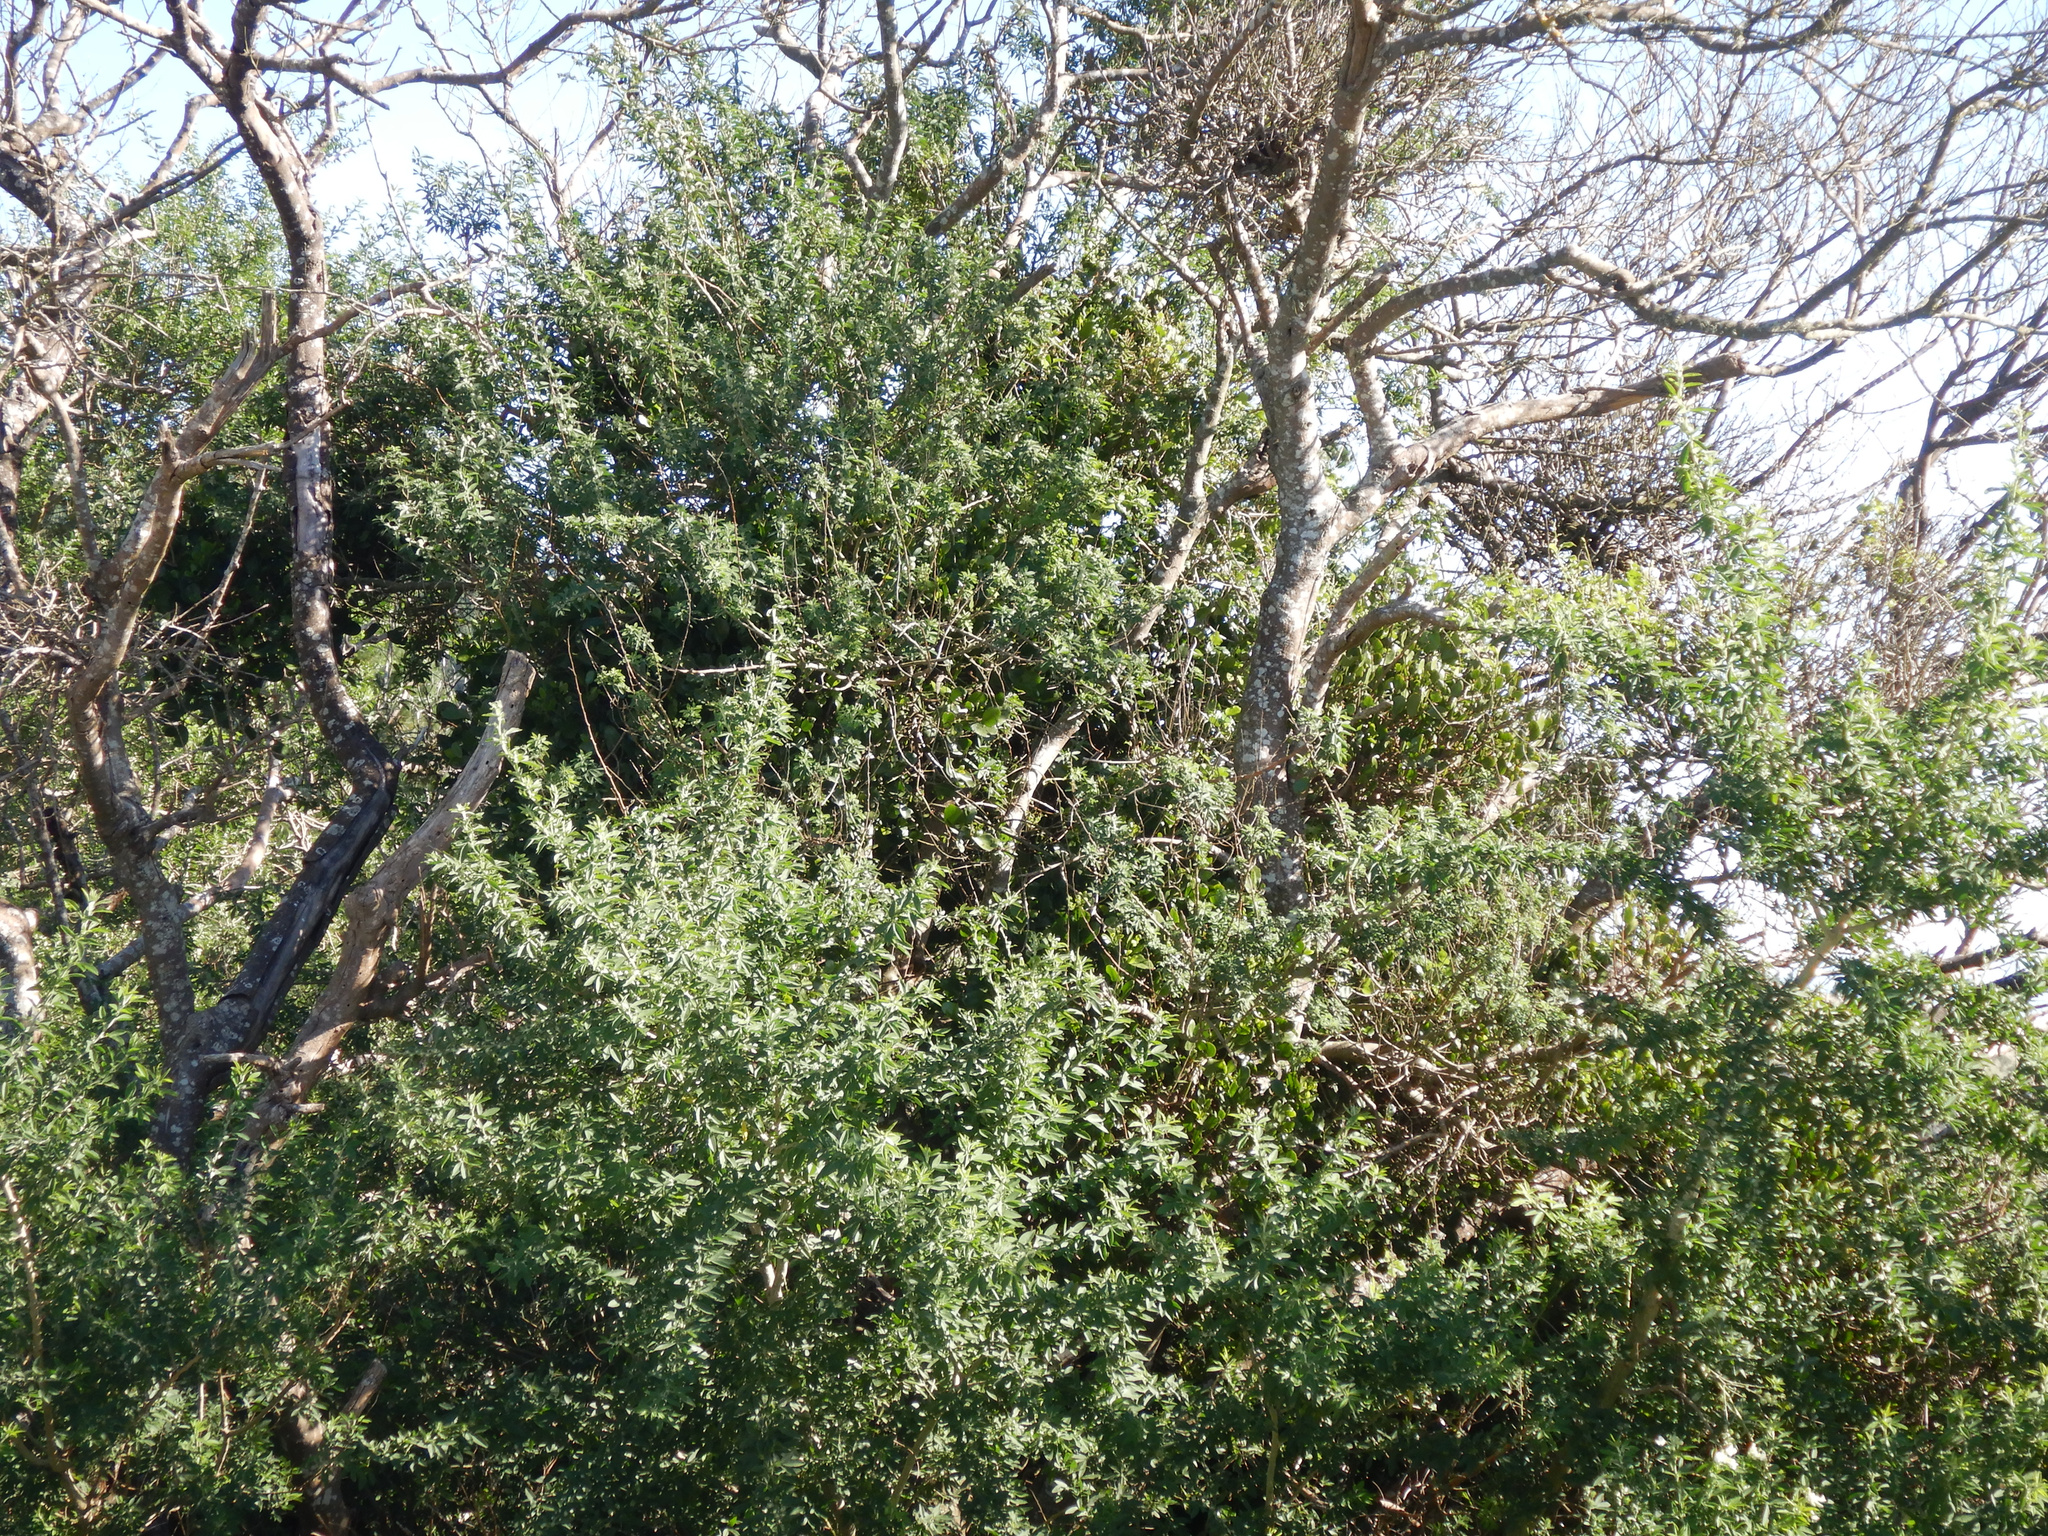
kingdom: Plantae
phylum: Tracheophyta
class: Magnoliopsida
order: Santalales
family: Loranthaceae
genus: Ileostylus
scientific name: Ileostylus micranthus
